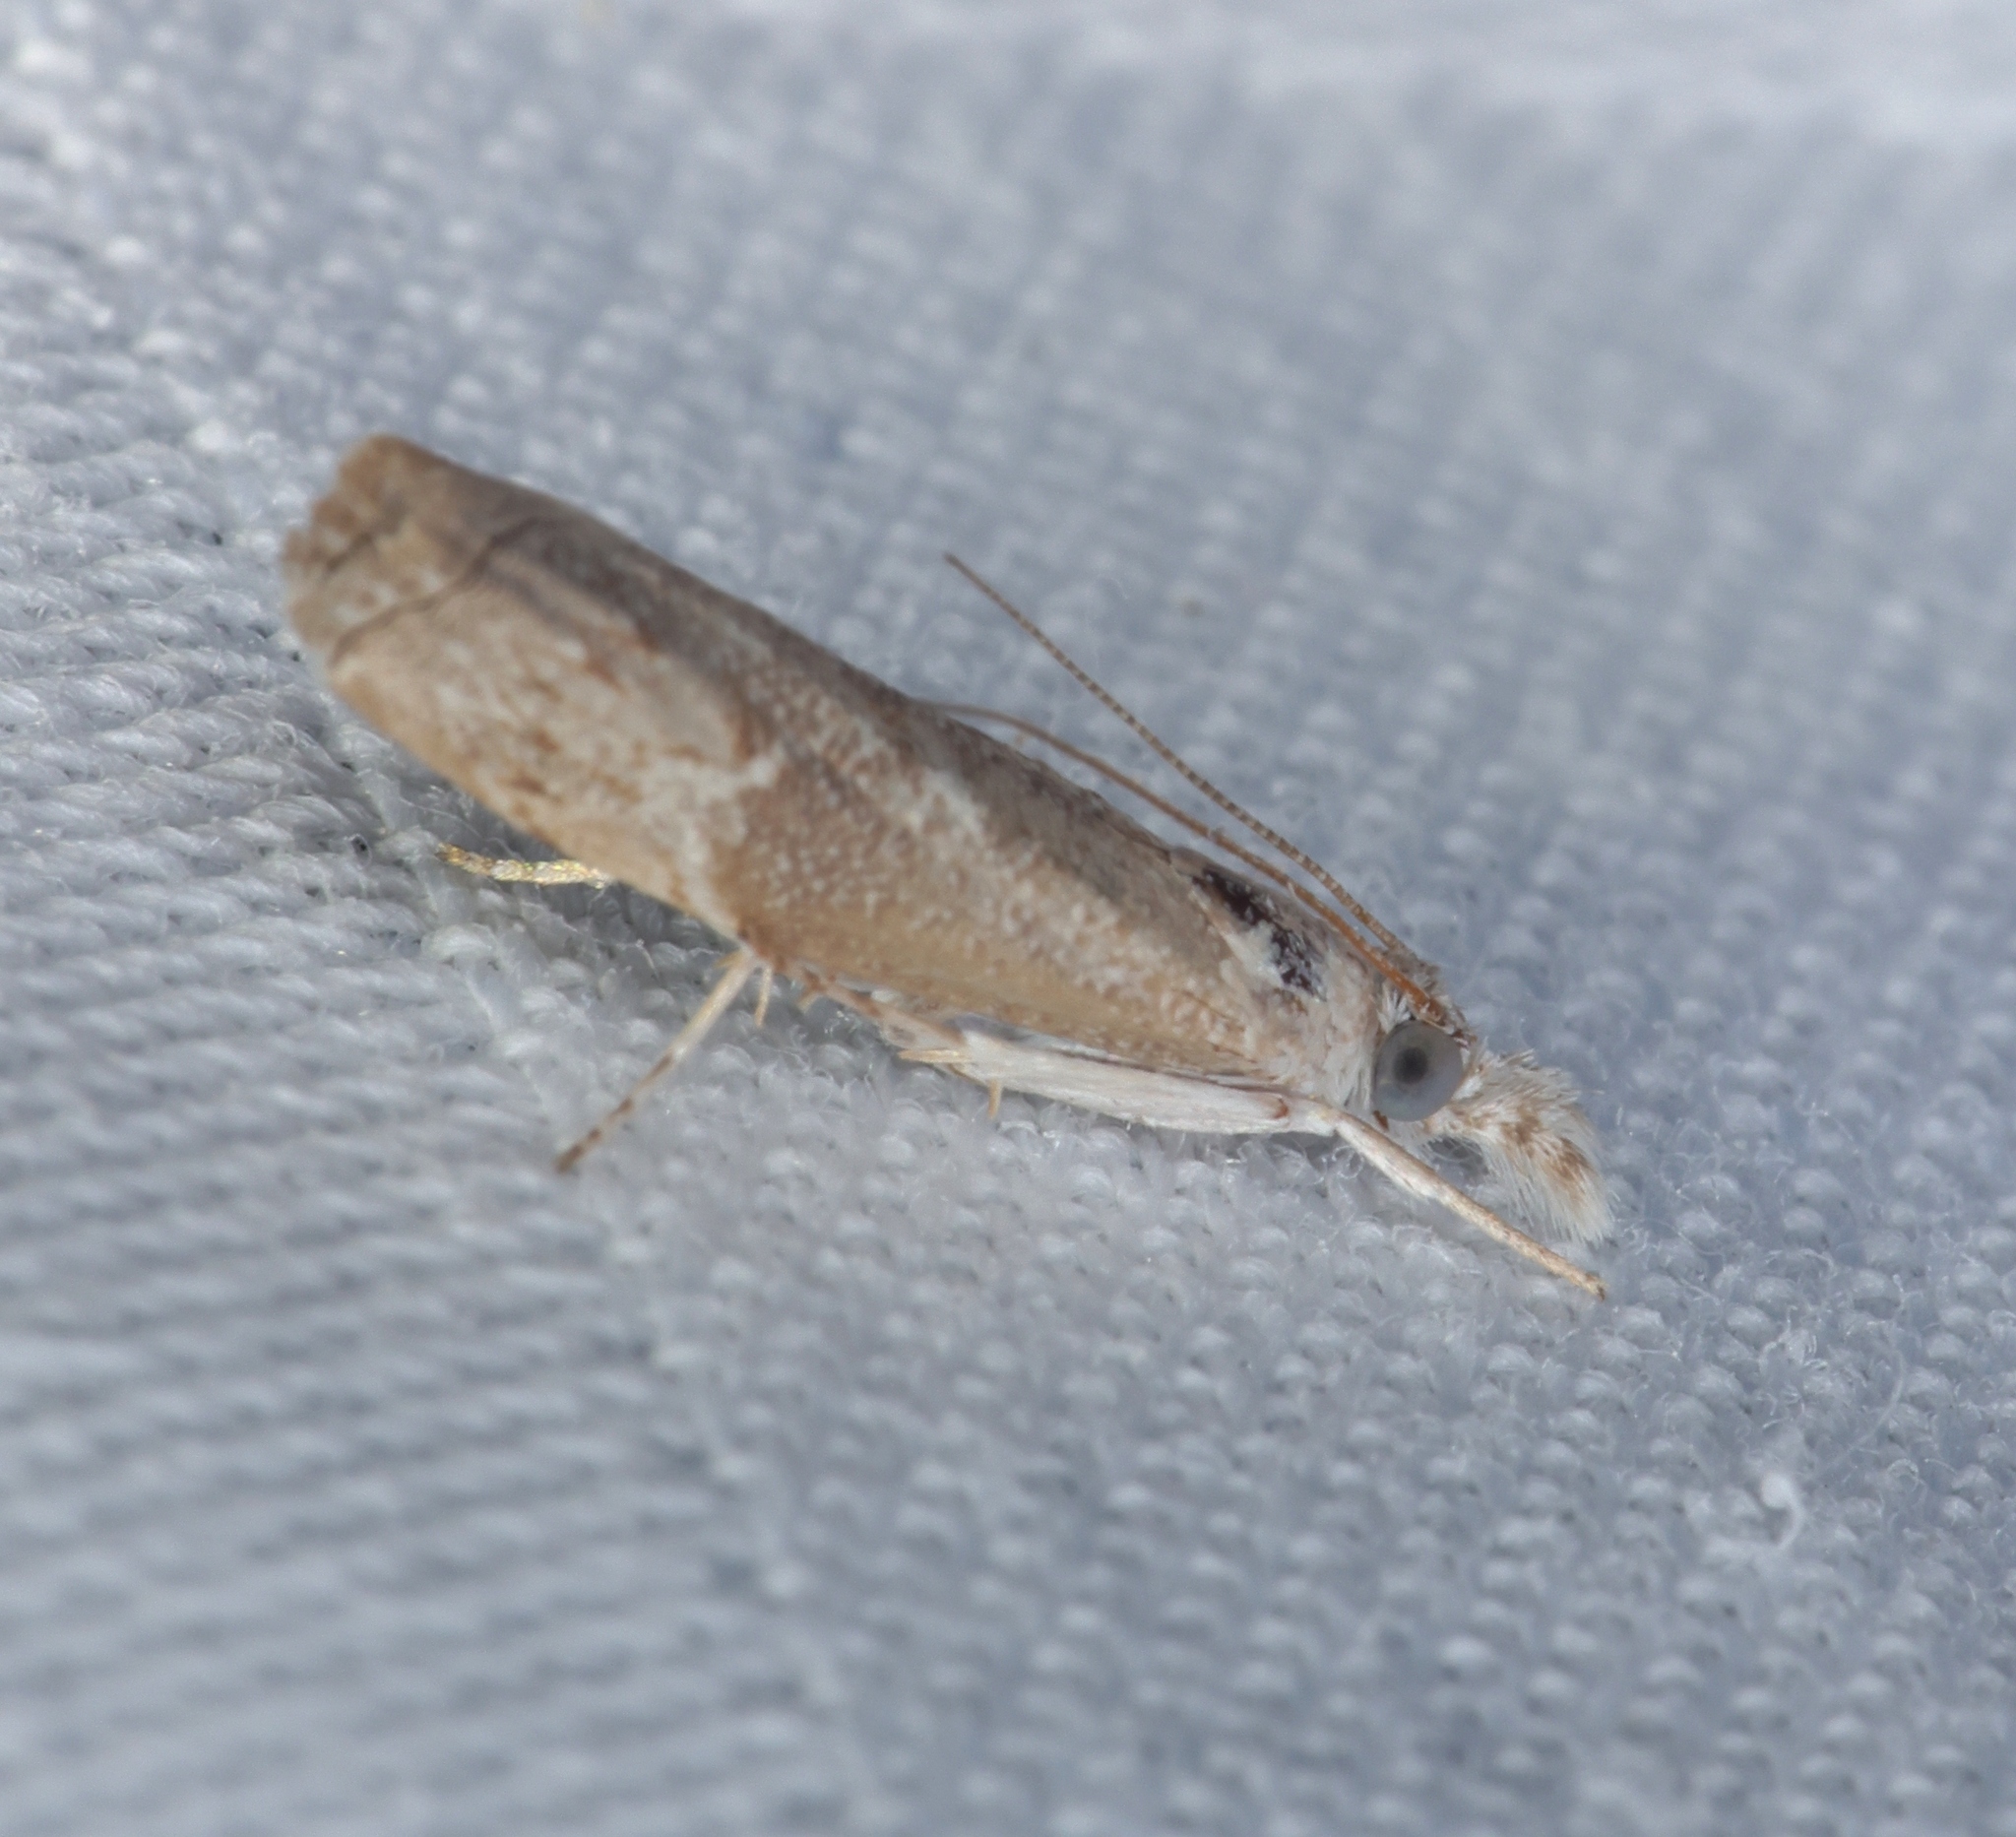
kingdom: Animalia
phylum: Arthropoda
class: Insecta
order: Lepidoptera
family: Crambidae
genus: Culladia
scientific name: Culladia hastiferalis
